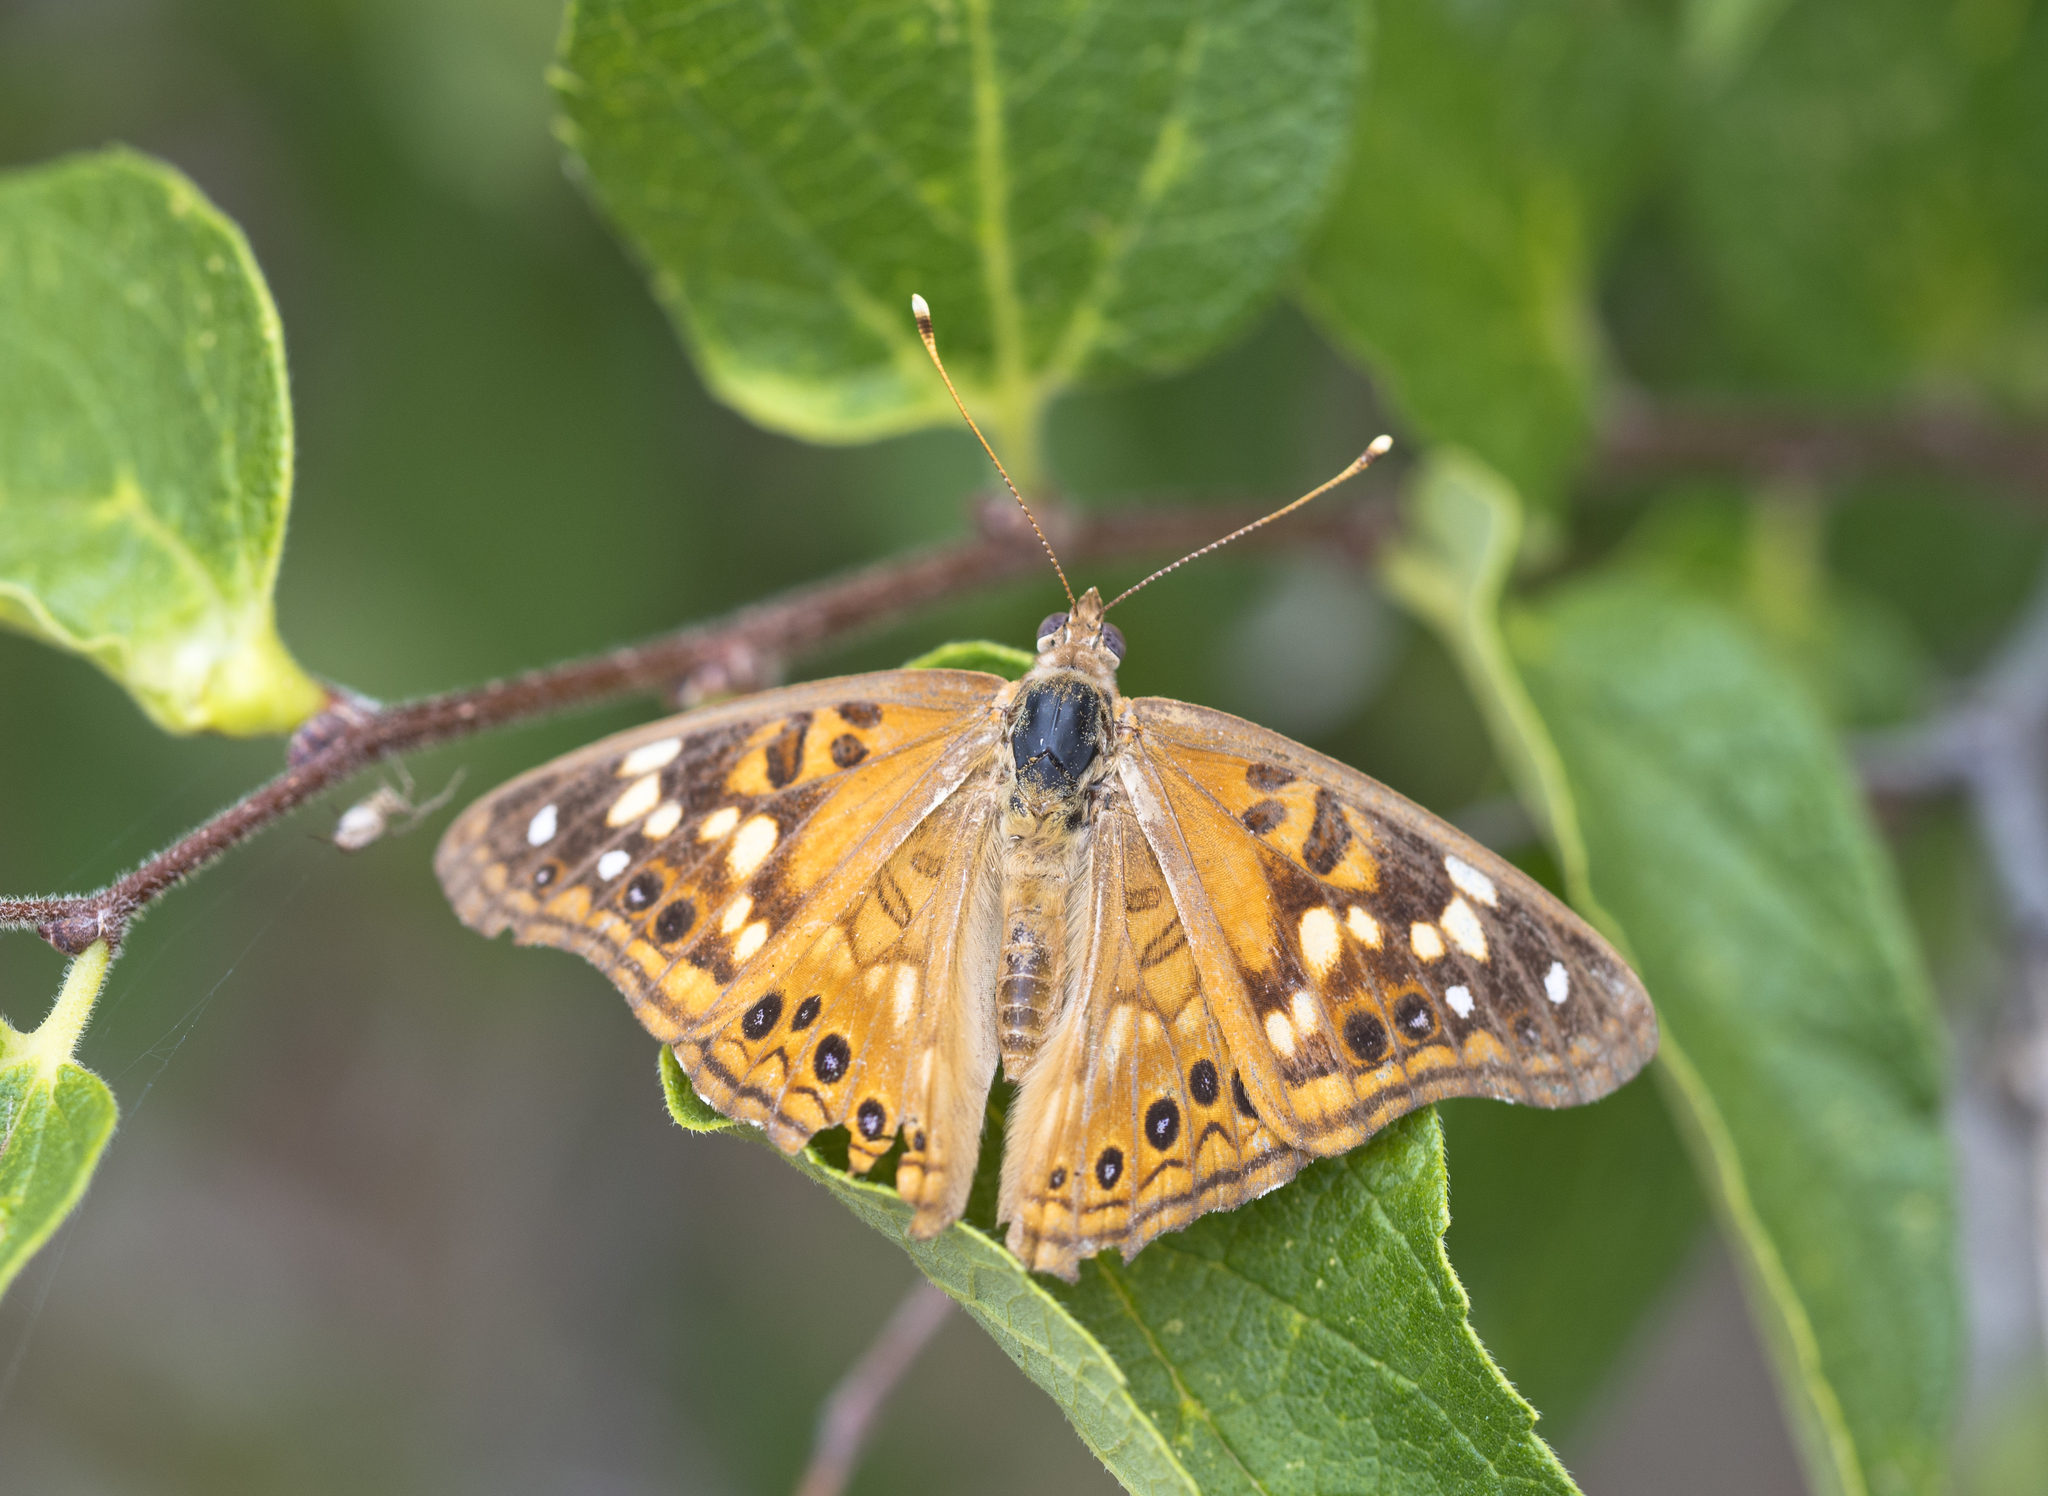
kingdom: Animalia
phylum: Arthropoda
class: Insecta
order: Lepidoptera
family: Nymphalidae
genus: Asterocampa
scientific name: Asterocampa celtis
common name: Hackberry emperor
